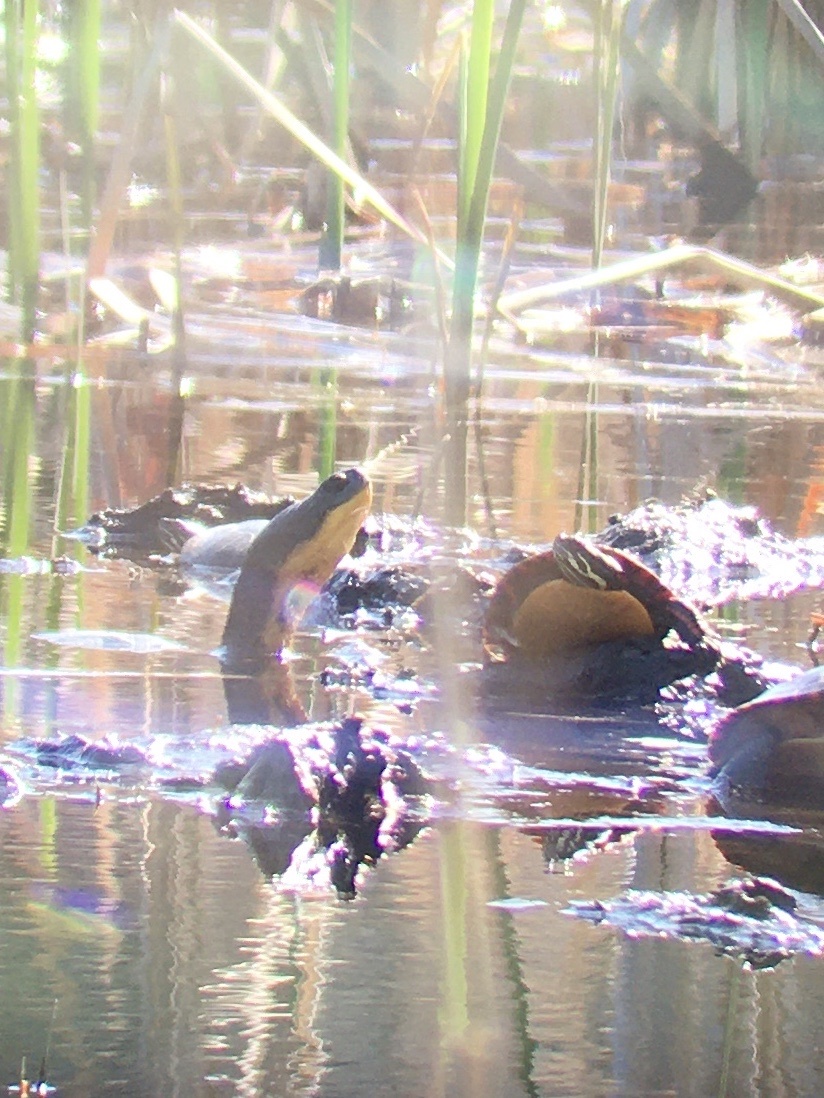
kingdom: Animalia
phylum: Chordata
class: Testudines
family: Emydidae
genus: Emys
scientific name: Emys blandingii
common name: Blanding's turtle
